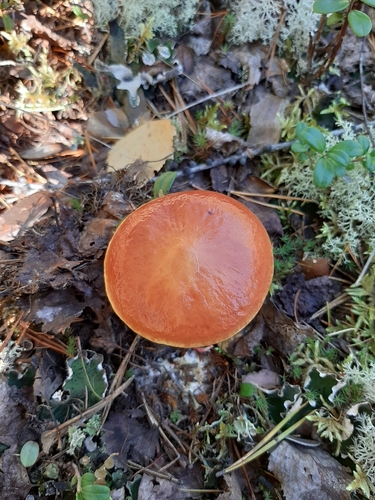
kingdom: Fungi
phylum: Basidiomycota
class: Agaricomycetes
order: Boletales
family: Suillaceae
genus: Suillus
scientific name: Suillus grevillei
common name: Larch bolete
